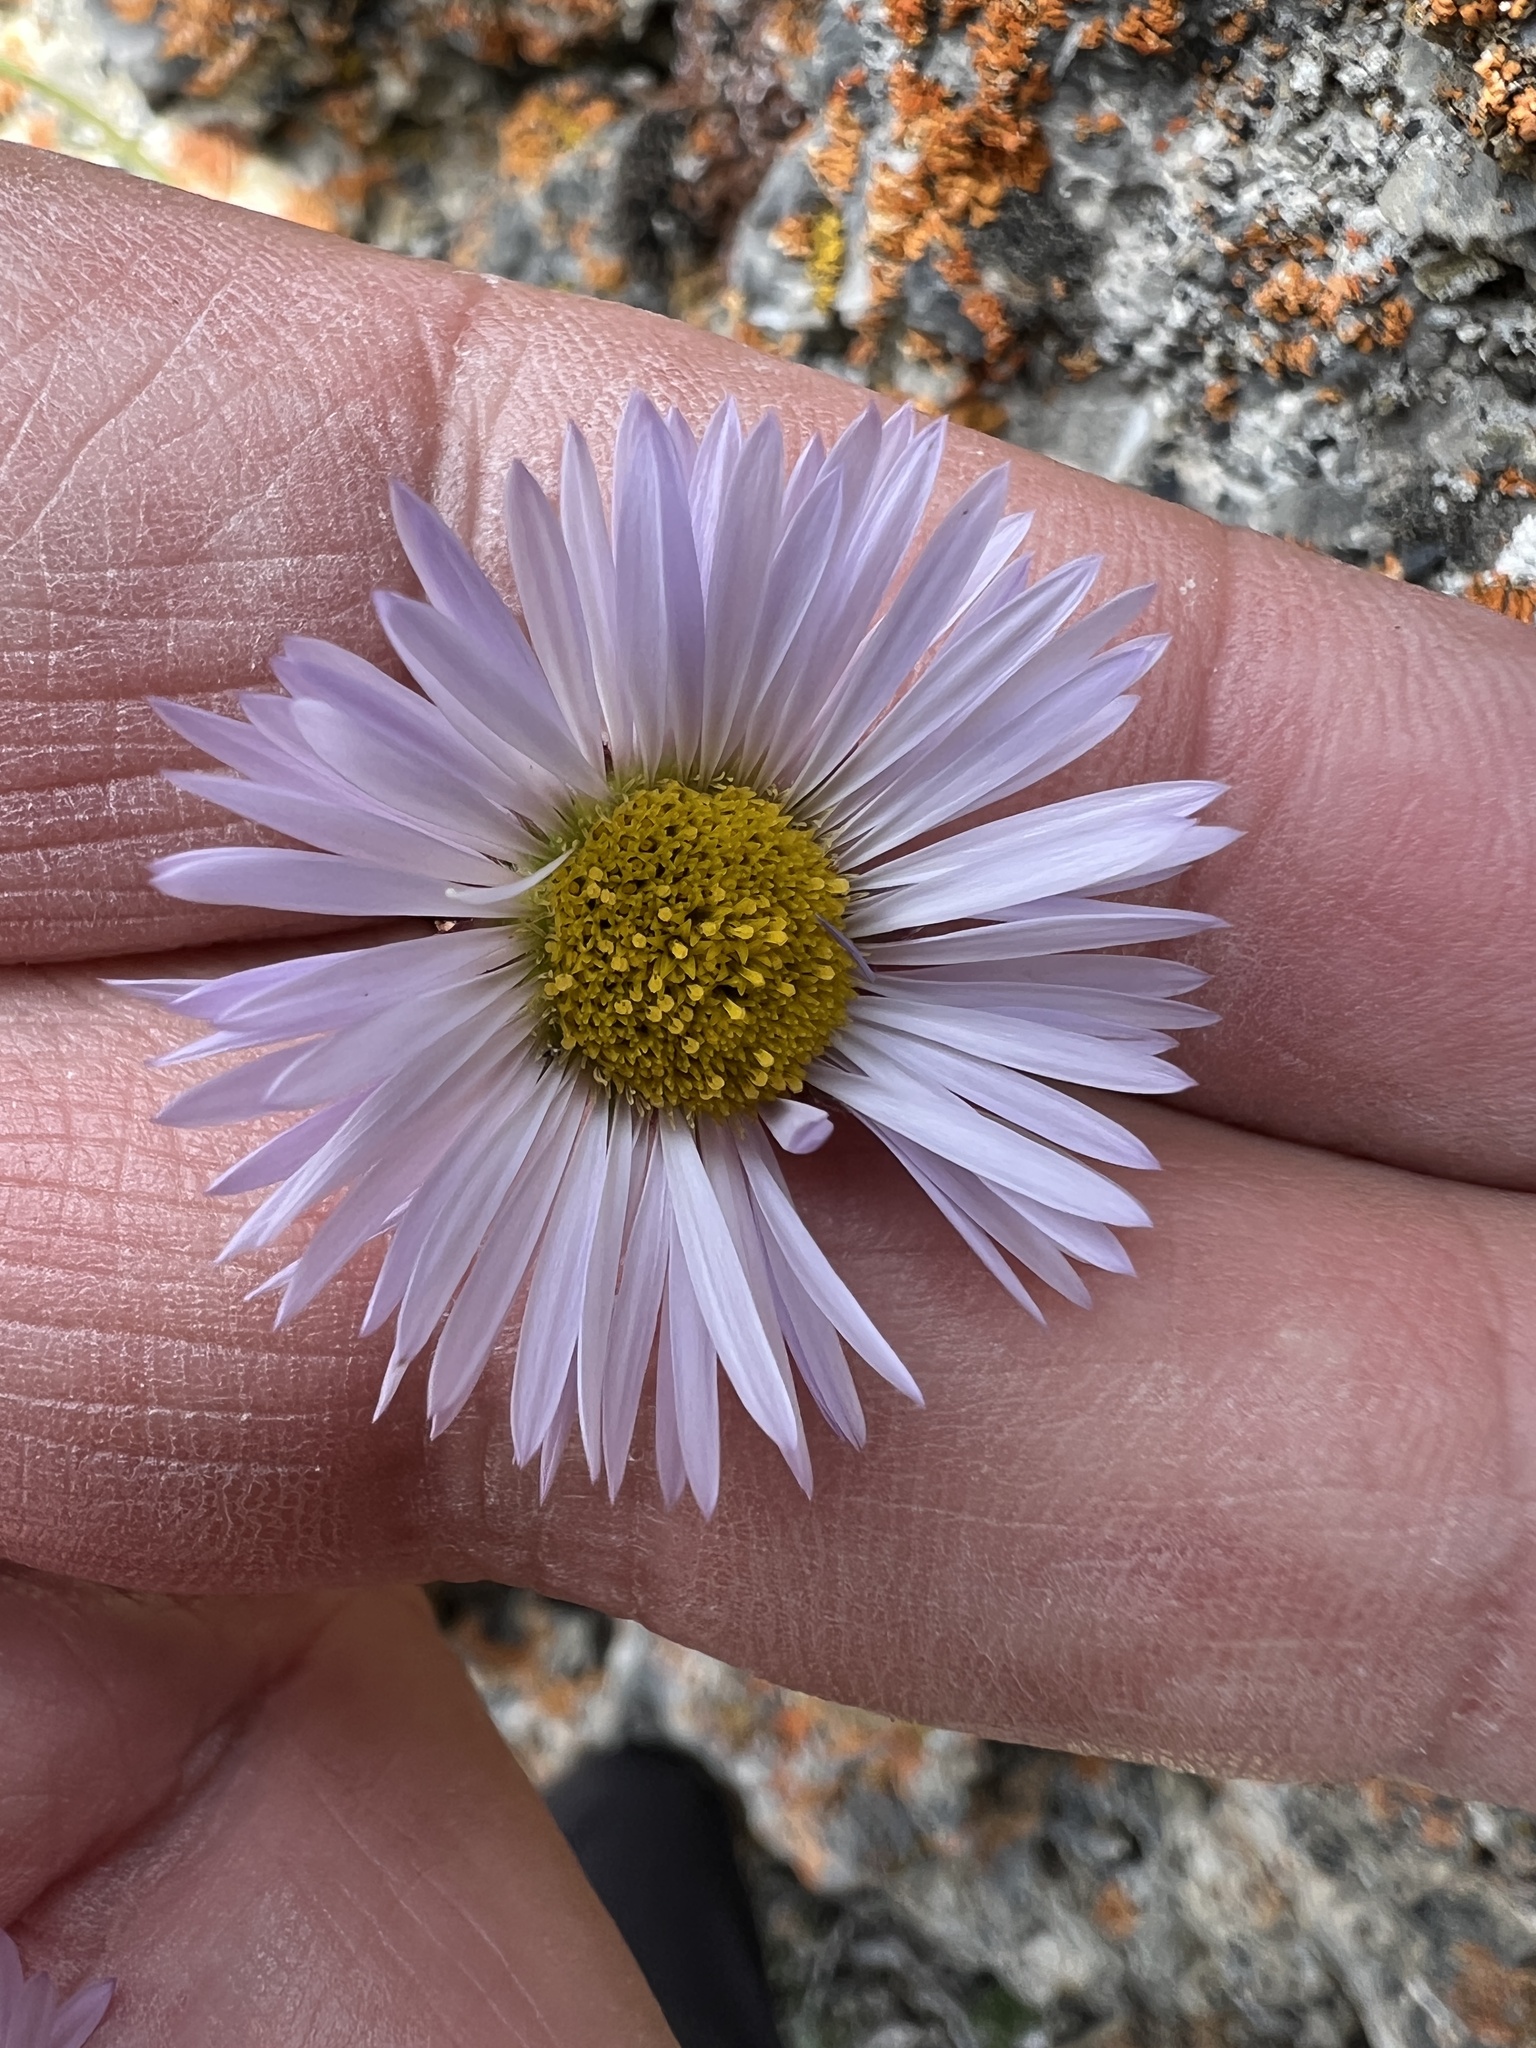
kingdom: Plantae
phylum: Tracheophyta
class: Magnoliopsida
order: Asterales
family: Asteraceae
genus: Erigeron
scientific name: Erigeron compositus
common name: Dwarf mountain fleabane
